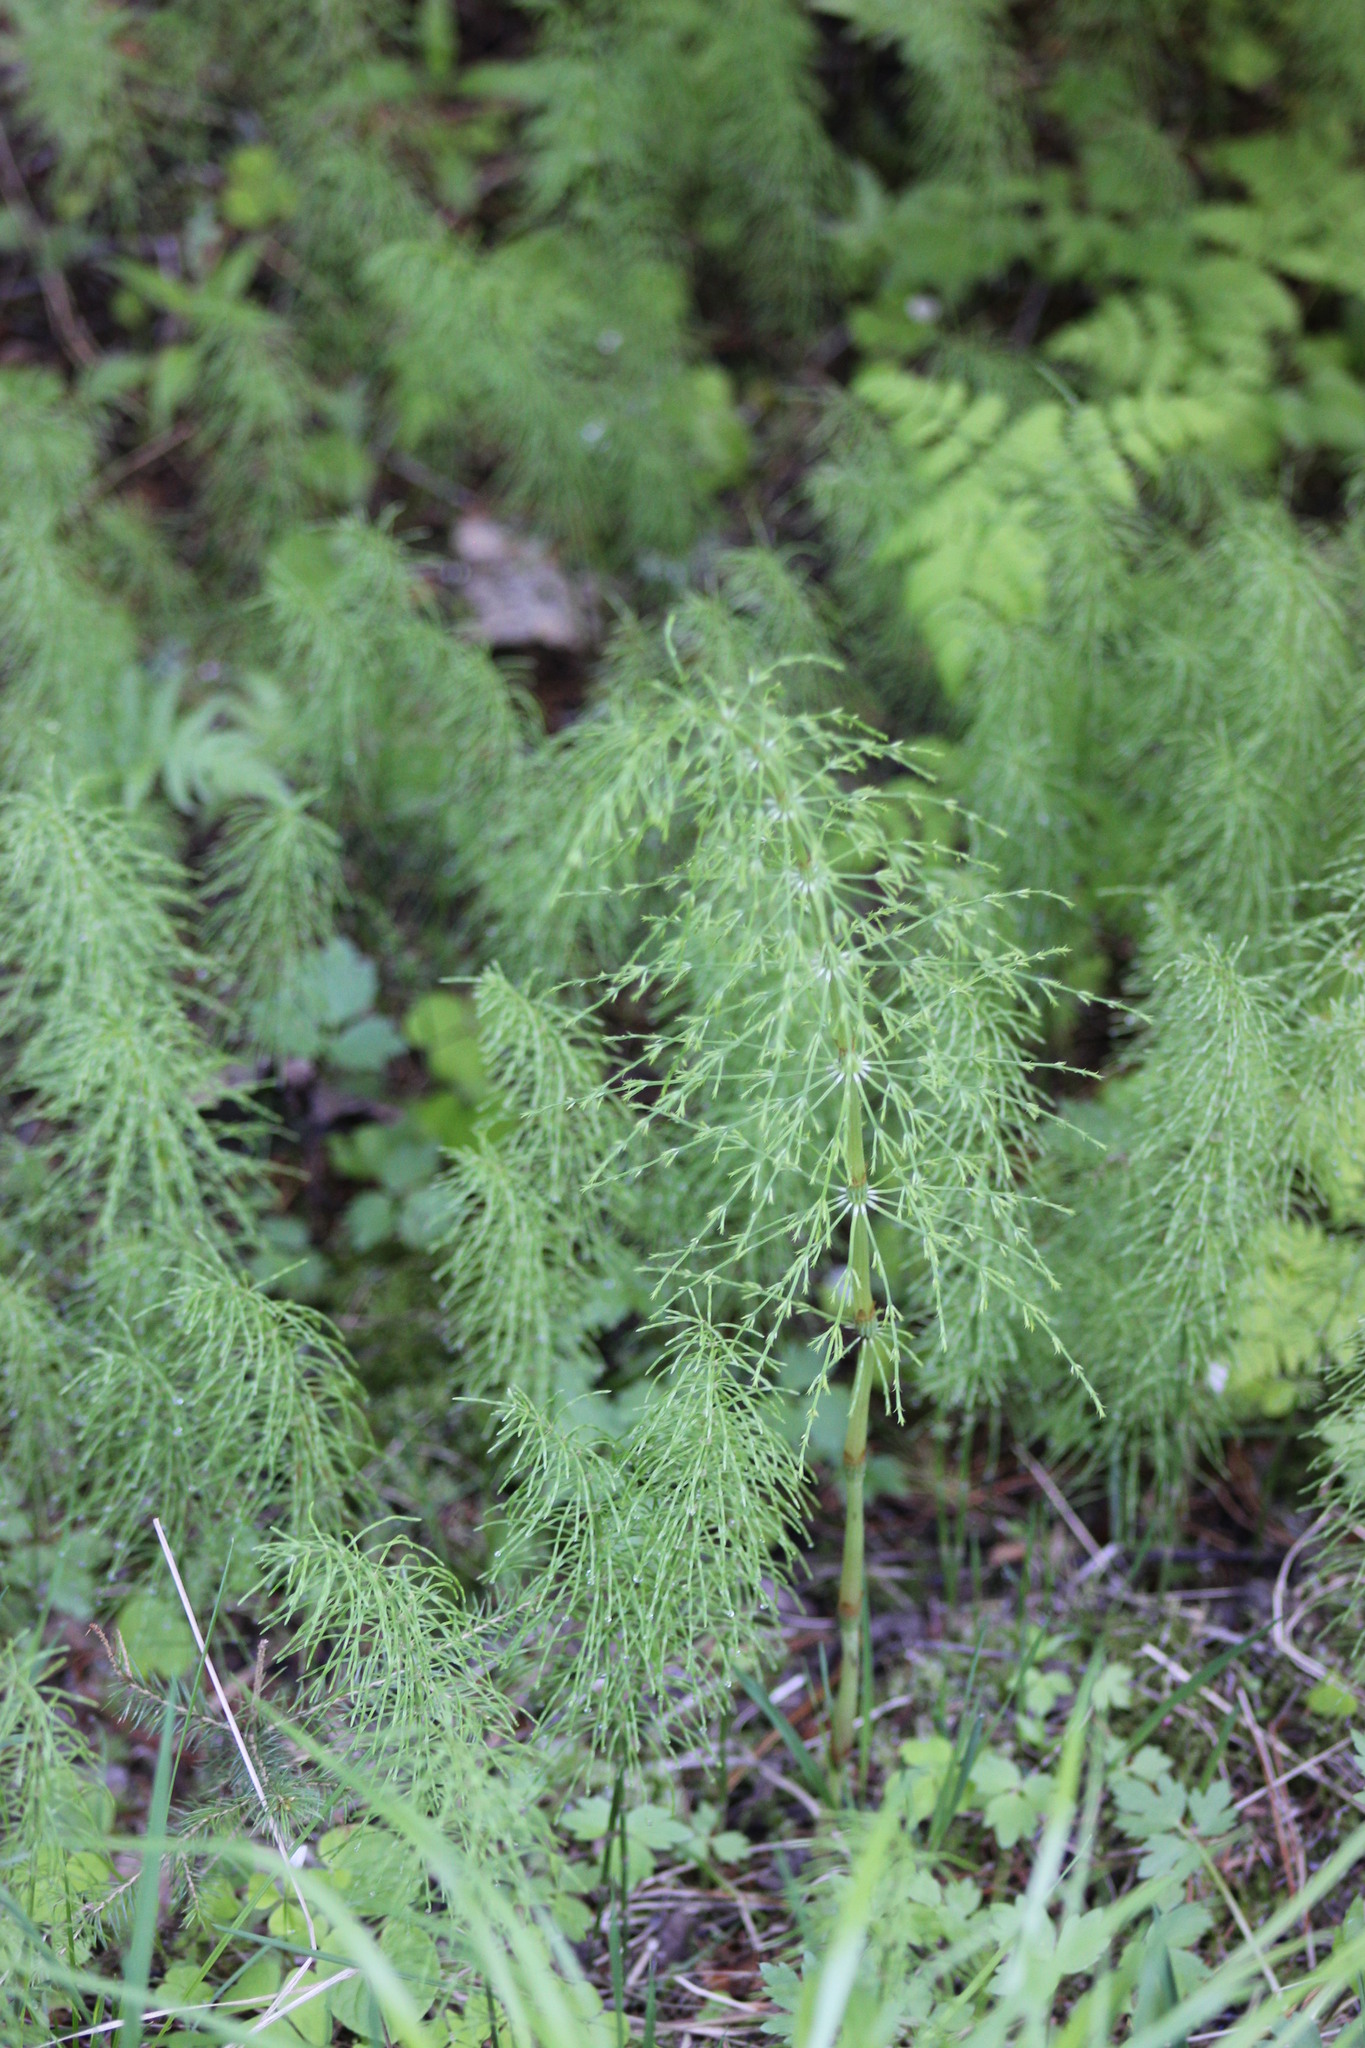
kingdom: Plantae
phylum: Tracheophyta
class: Polypodiopsida
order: Equisetales
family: Equisetaceae
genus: Equisetum
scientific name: Equisetum sylvaticum
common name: Wood horsetail
